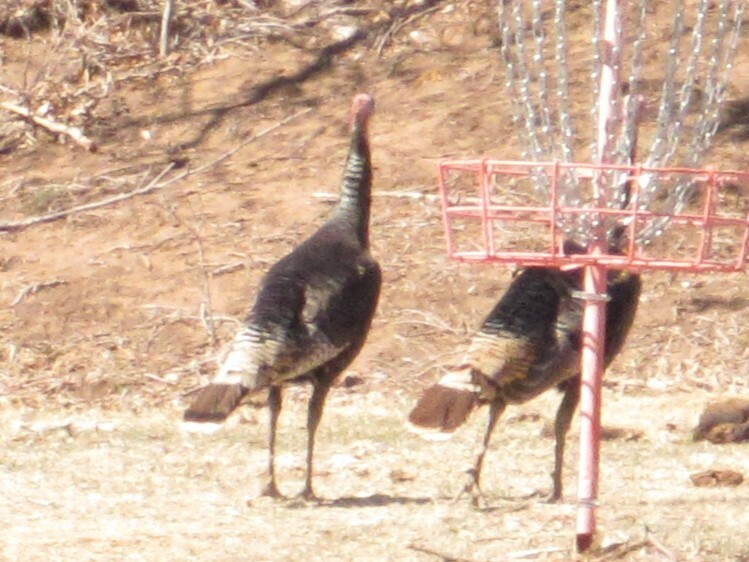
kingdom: Animalia
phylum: Chordata
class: Aves
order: Galliformes
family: Phasianidae
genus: Meleagris
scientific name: Meleagris gallopavo
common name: Wild turkey
